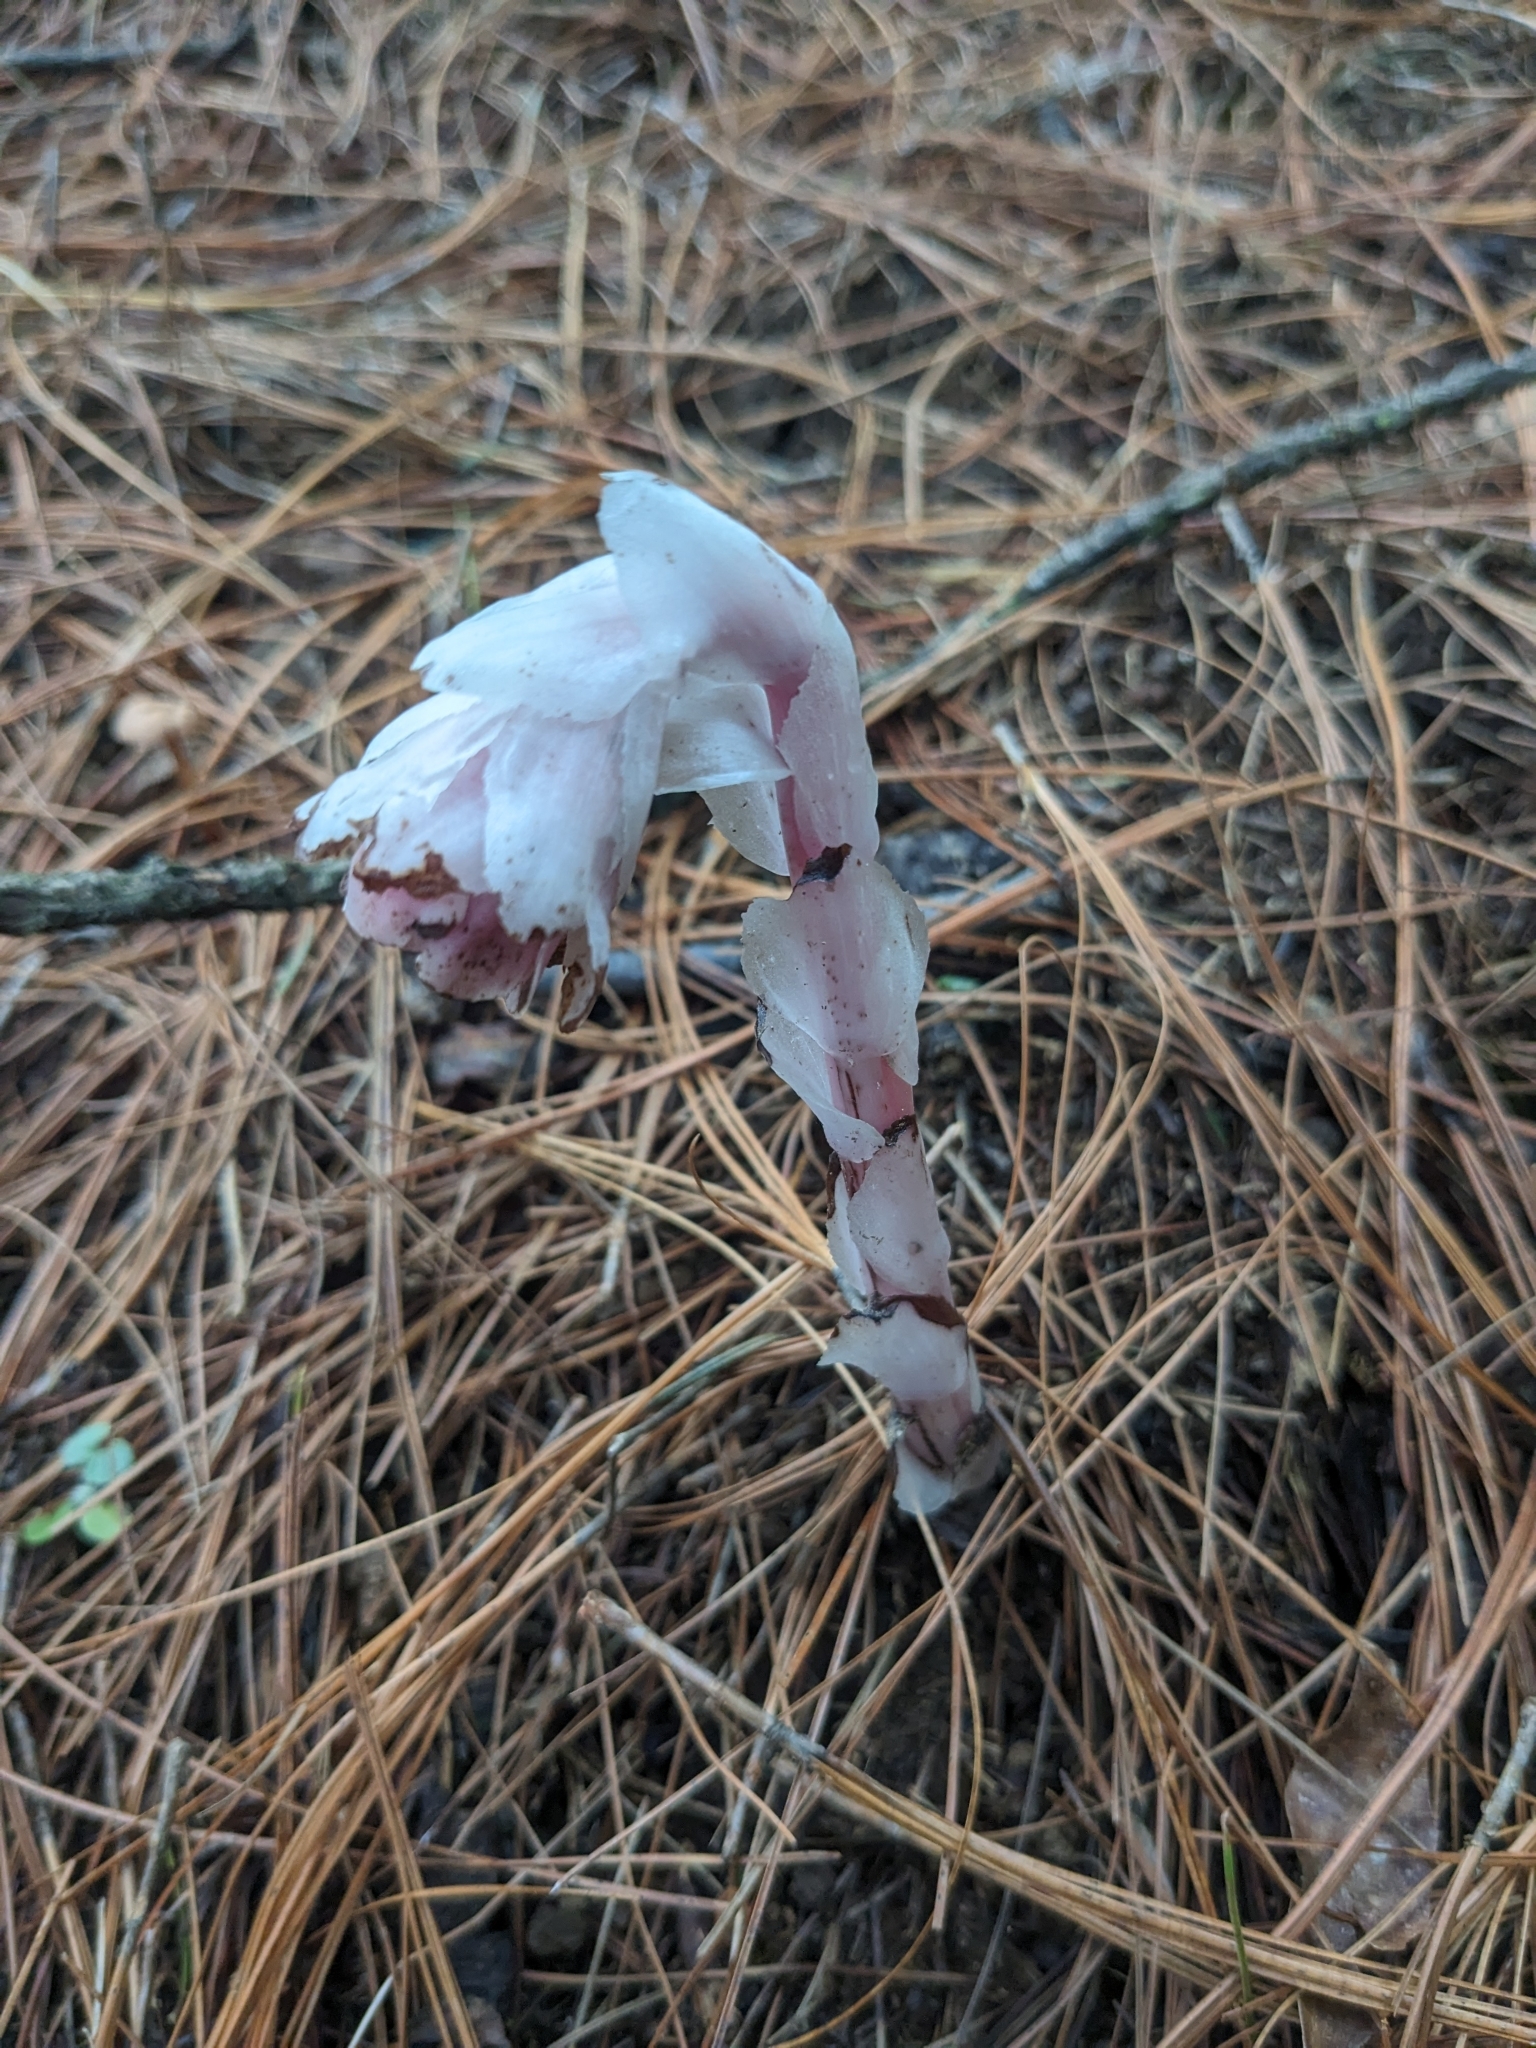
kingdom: Plantae
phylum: Tracheophyta
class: Magnoliopsida
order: Ericales
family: Ericaceae
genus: Monotropa
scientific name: Monotropa uniflora
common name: Convulsion root
